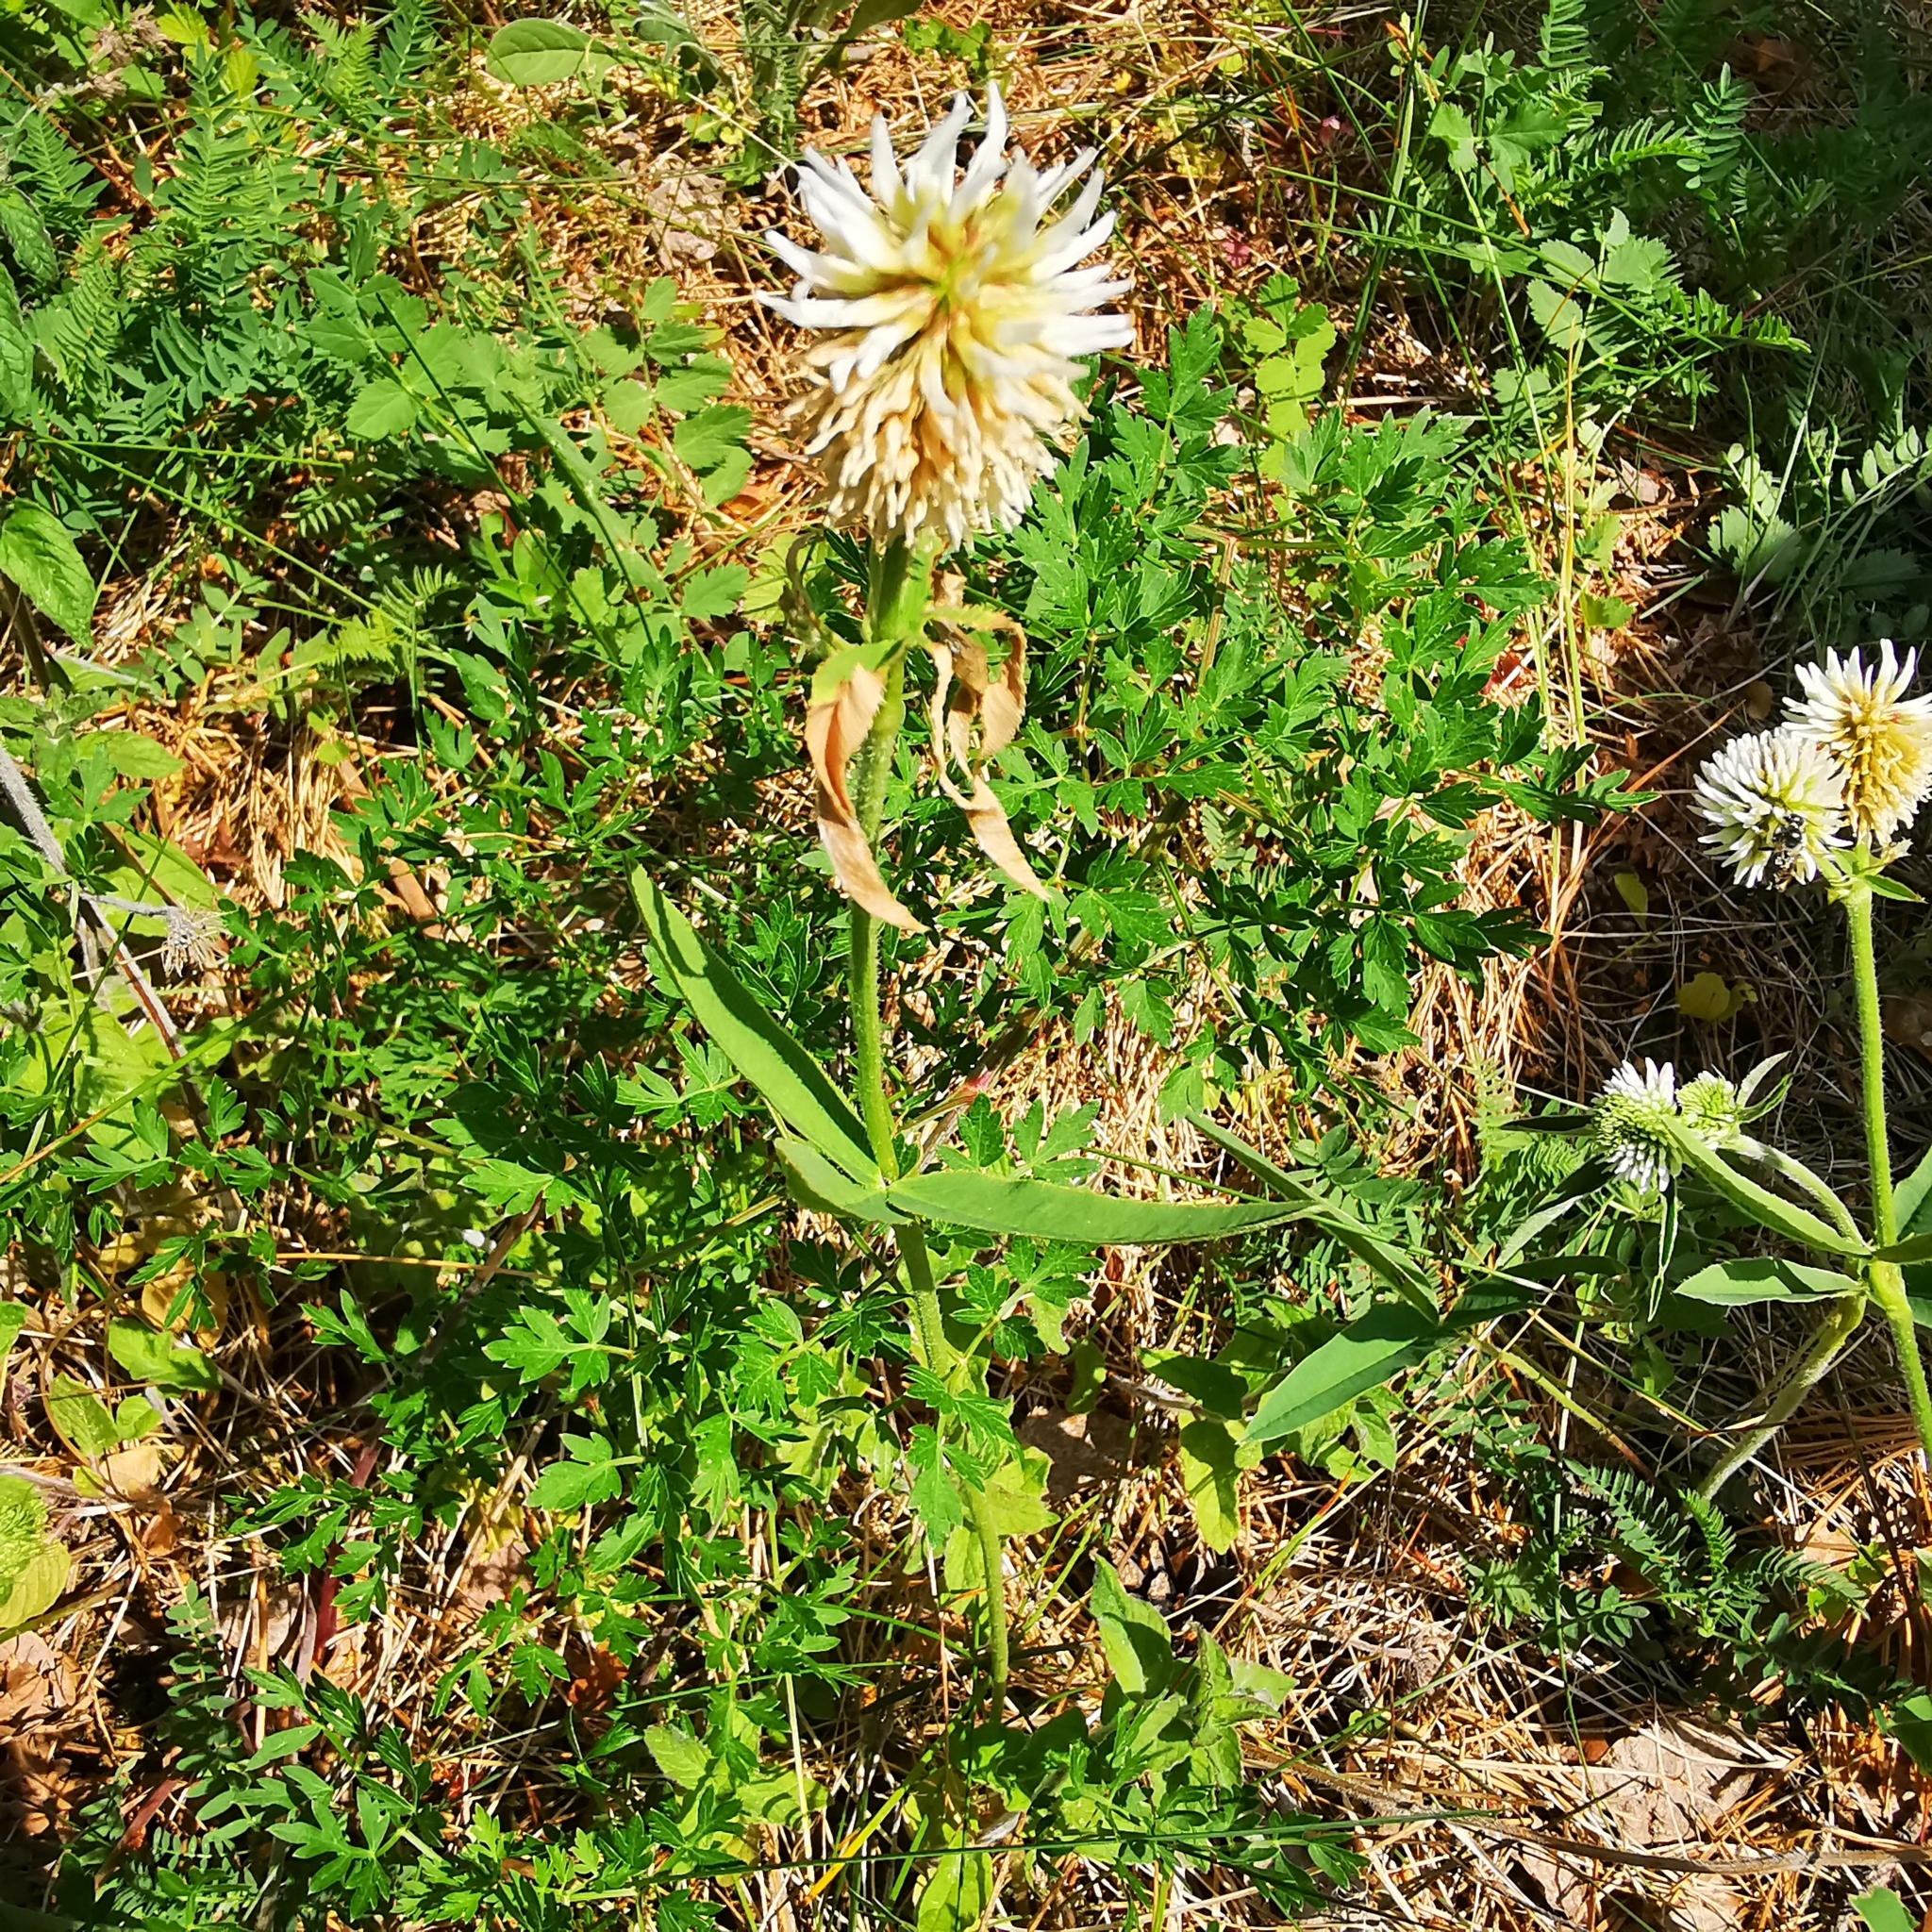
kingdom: Plantae
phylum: Tracheophyta
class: Magnoliopsida
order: Fabales
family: Fabaceae
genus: Trifolium
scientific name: Trifolium montanum
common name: Mountain clover
